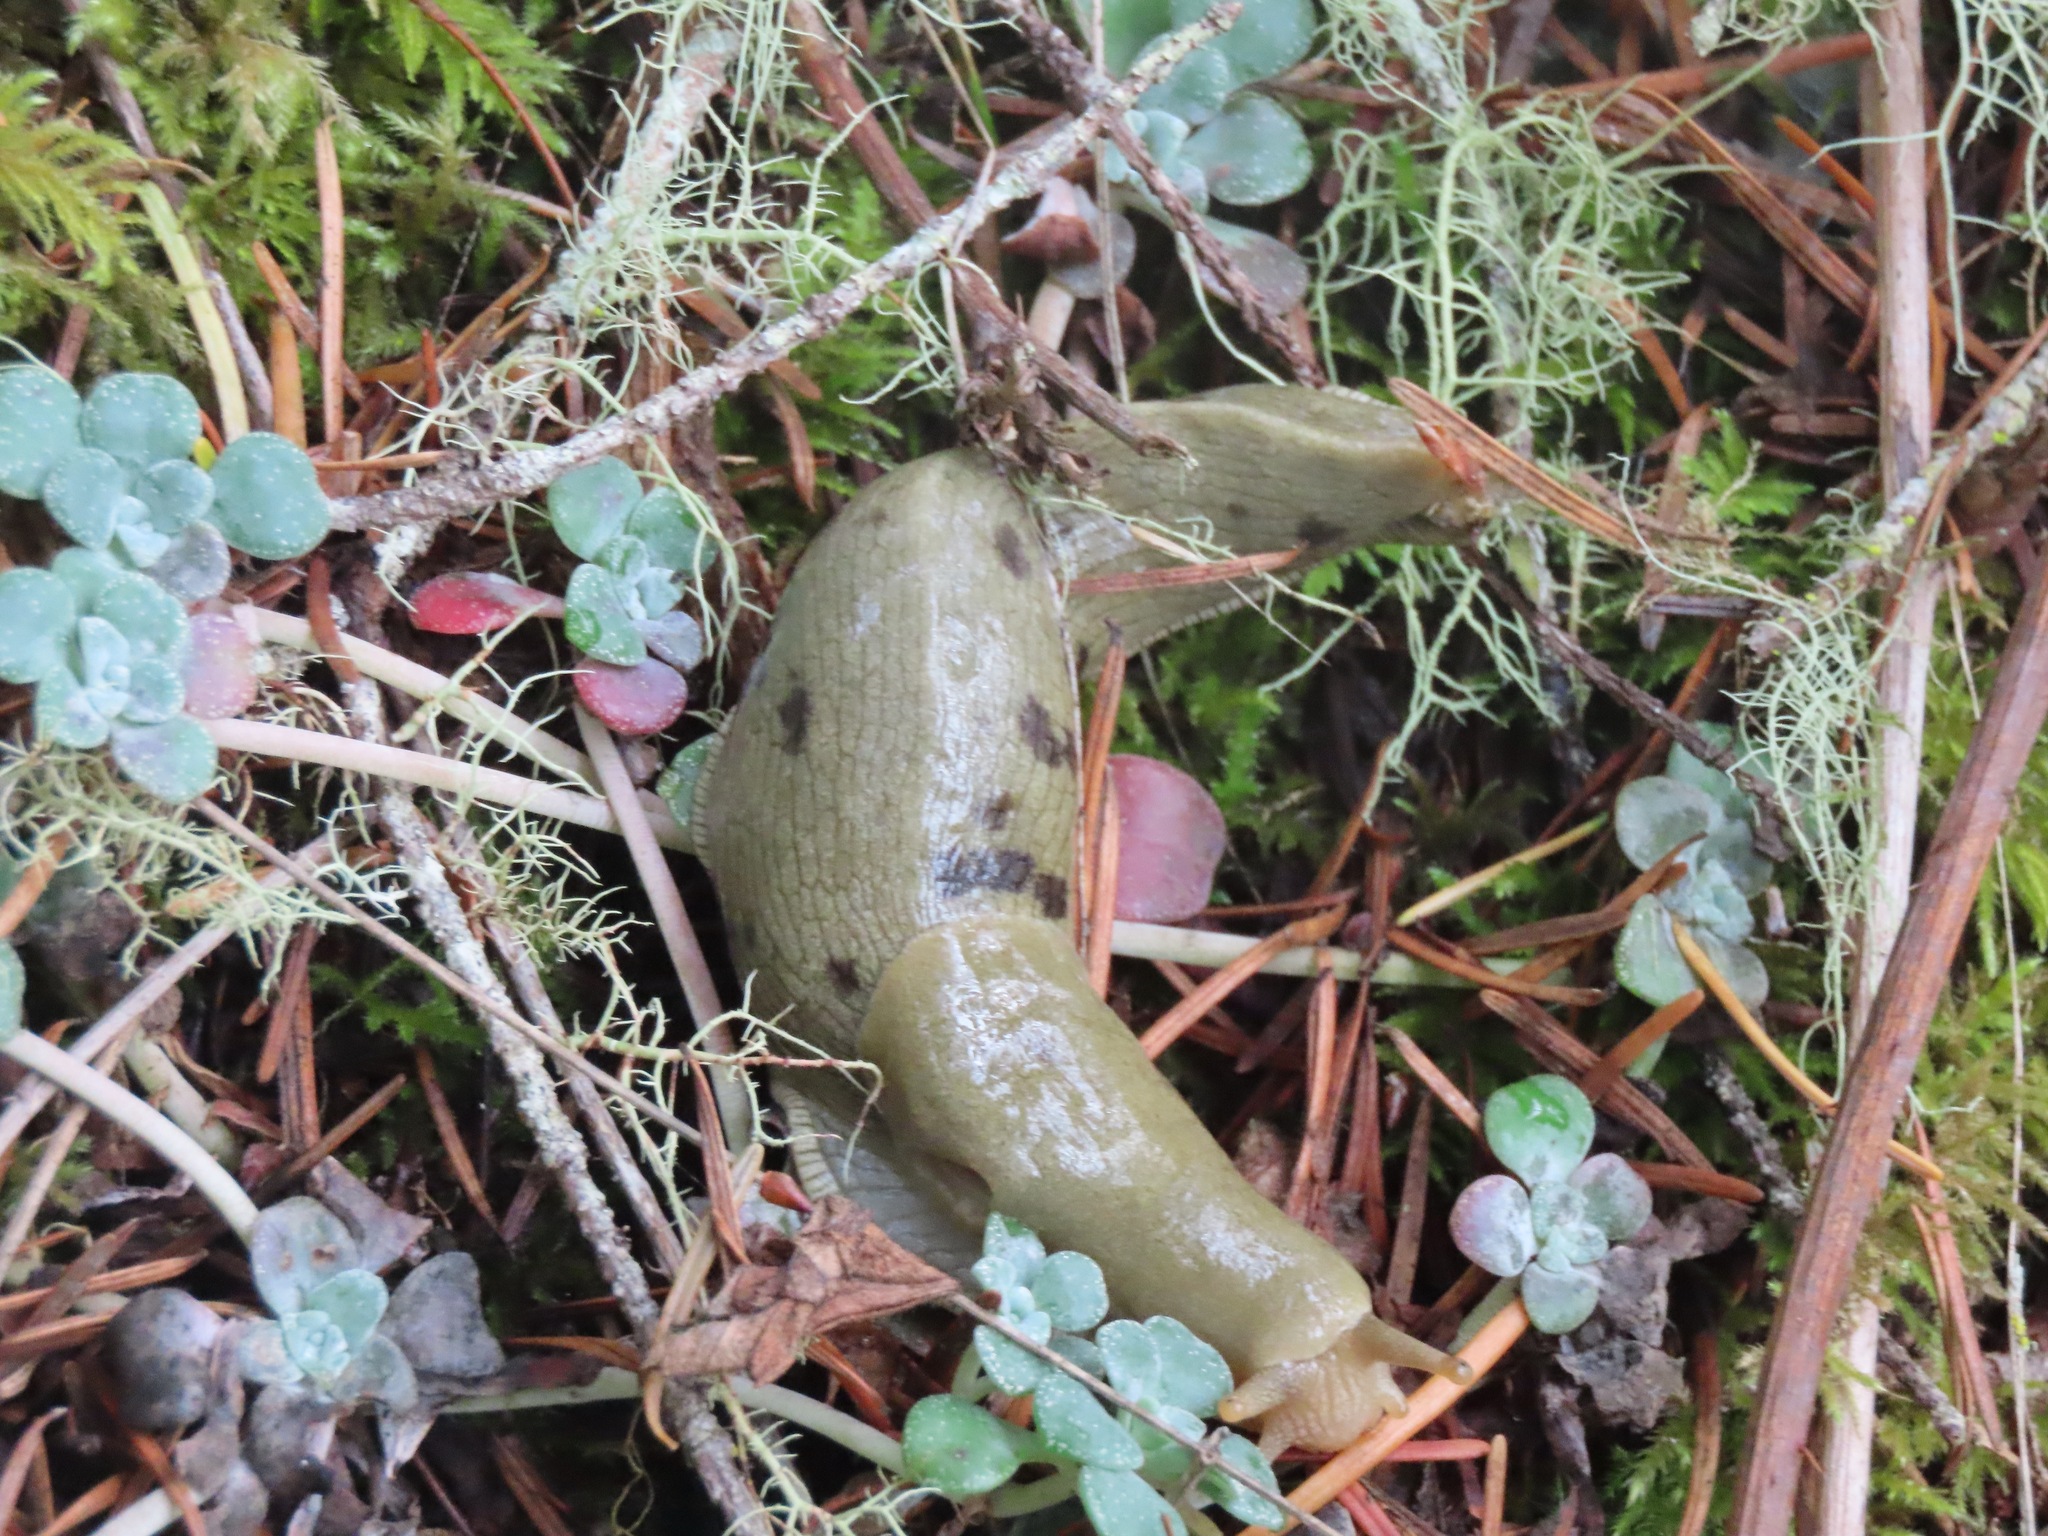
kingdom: Animalia
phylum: Mollusca
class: Gastropoda
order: Stylommatophora
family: Ariolimacidae
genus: Ariolimax
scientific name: Ariolimax columbianus
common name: Pacific banana slug
